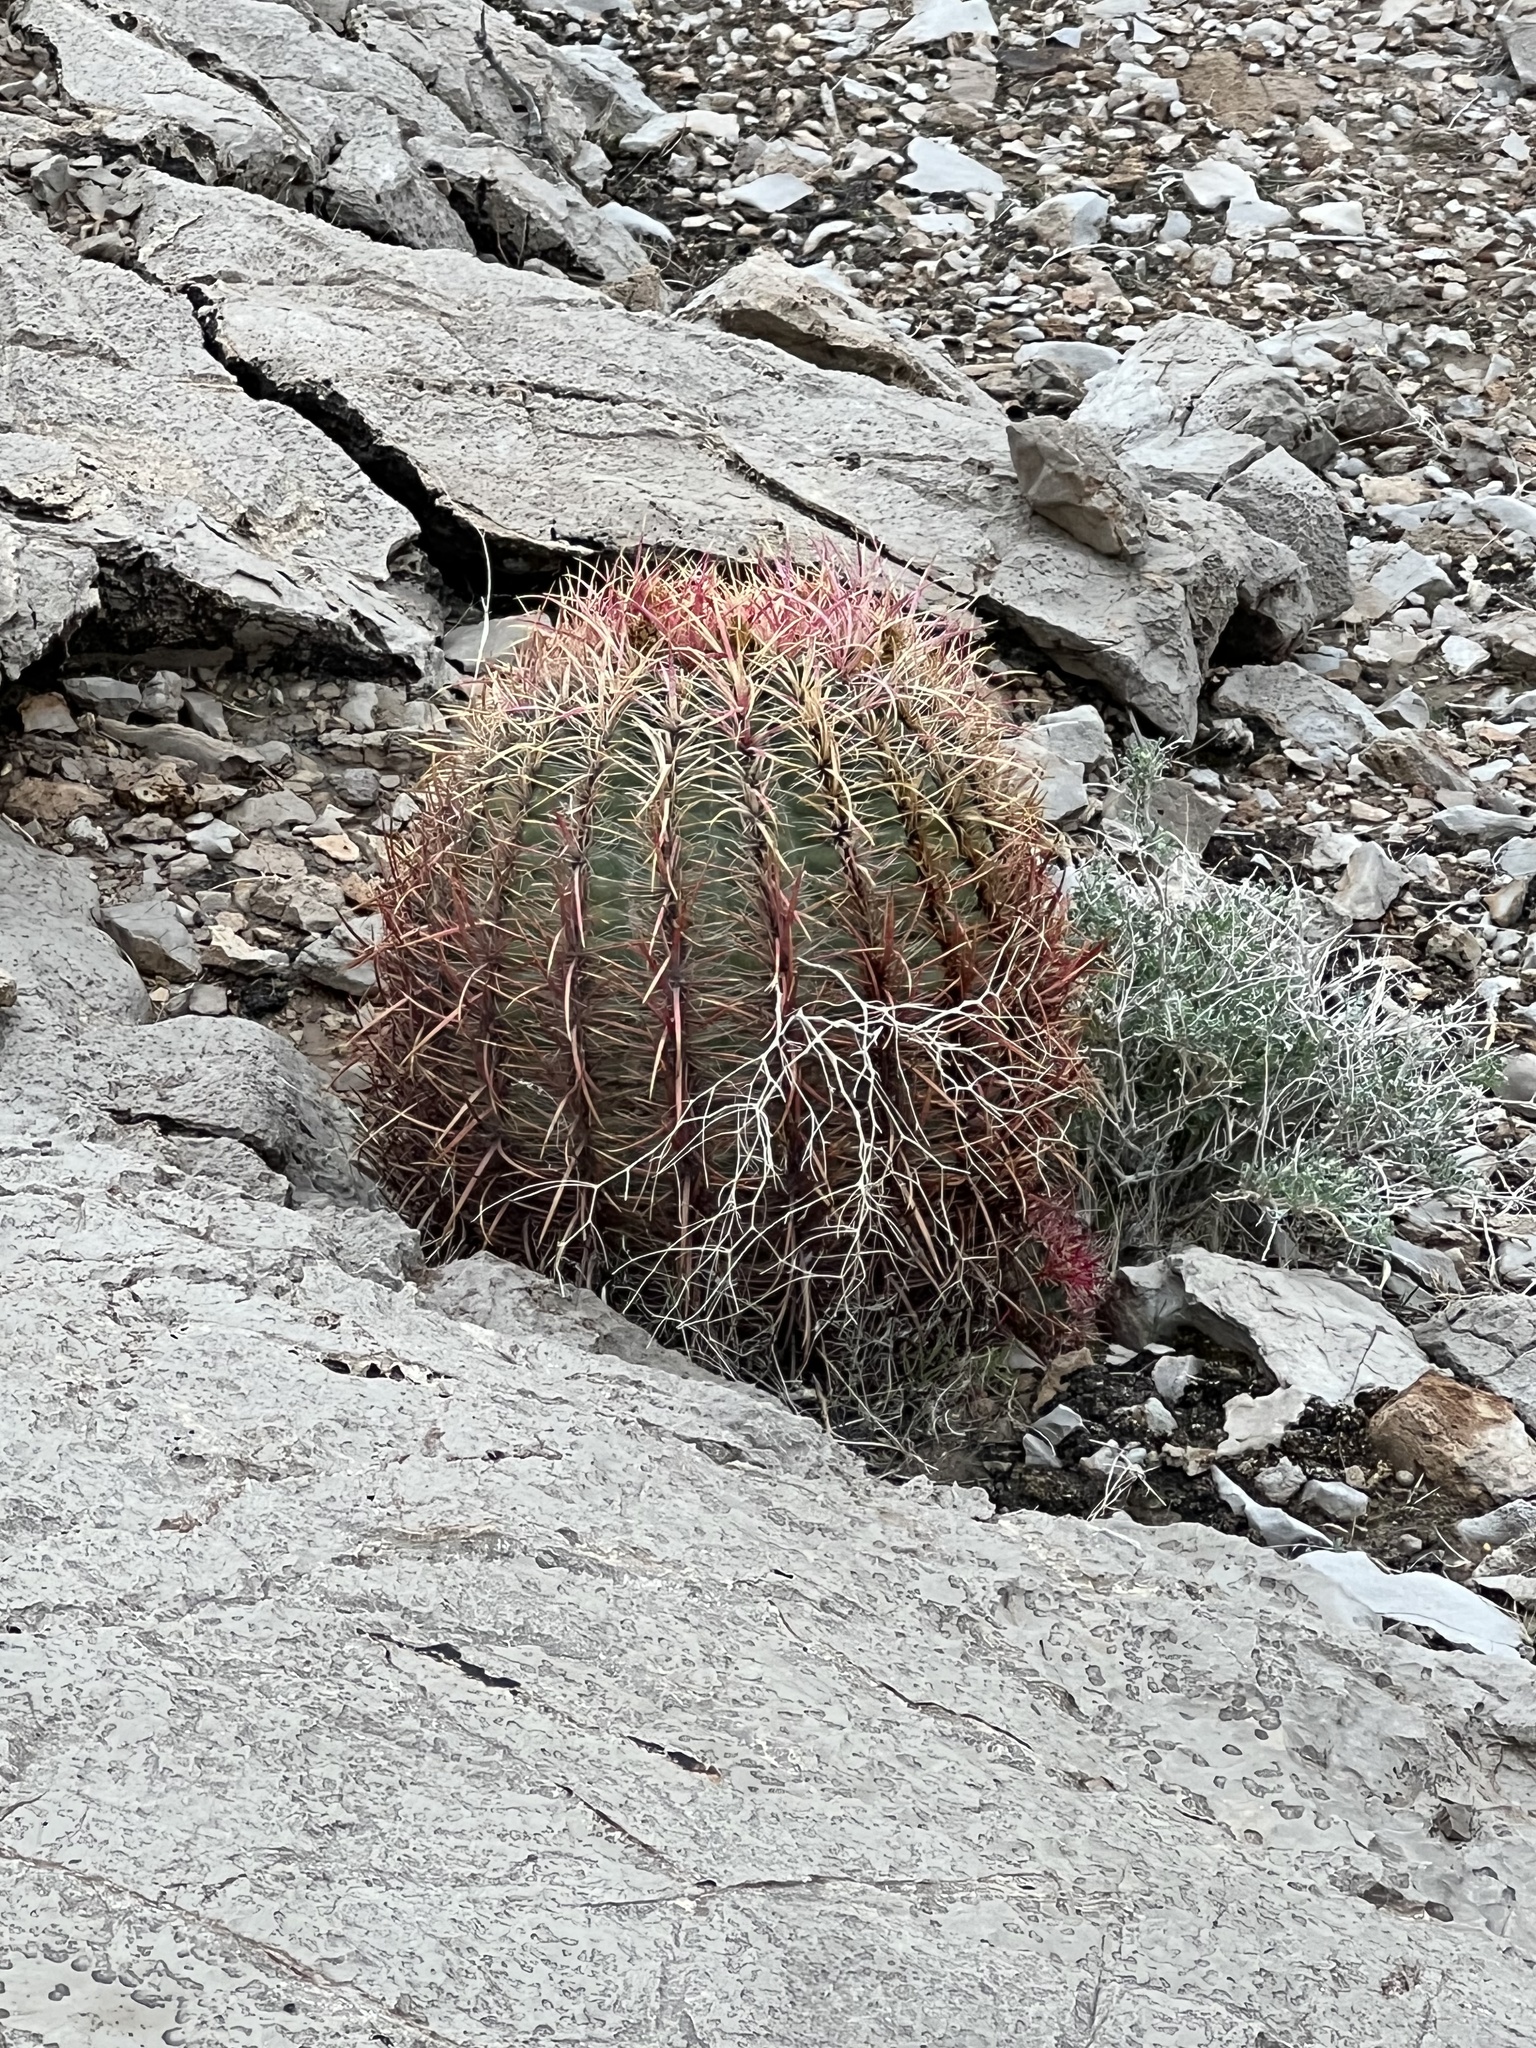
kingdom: Plantae
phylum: Tracheophyta
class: Magnoliopsida
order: Caryophyllales
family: Cactaceae
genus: Ferocactus
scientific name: Ferocactus cylindraceus
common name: California barrel cactus
